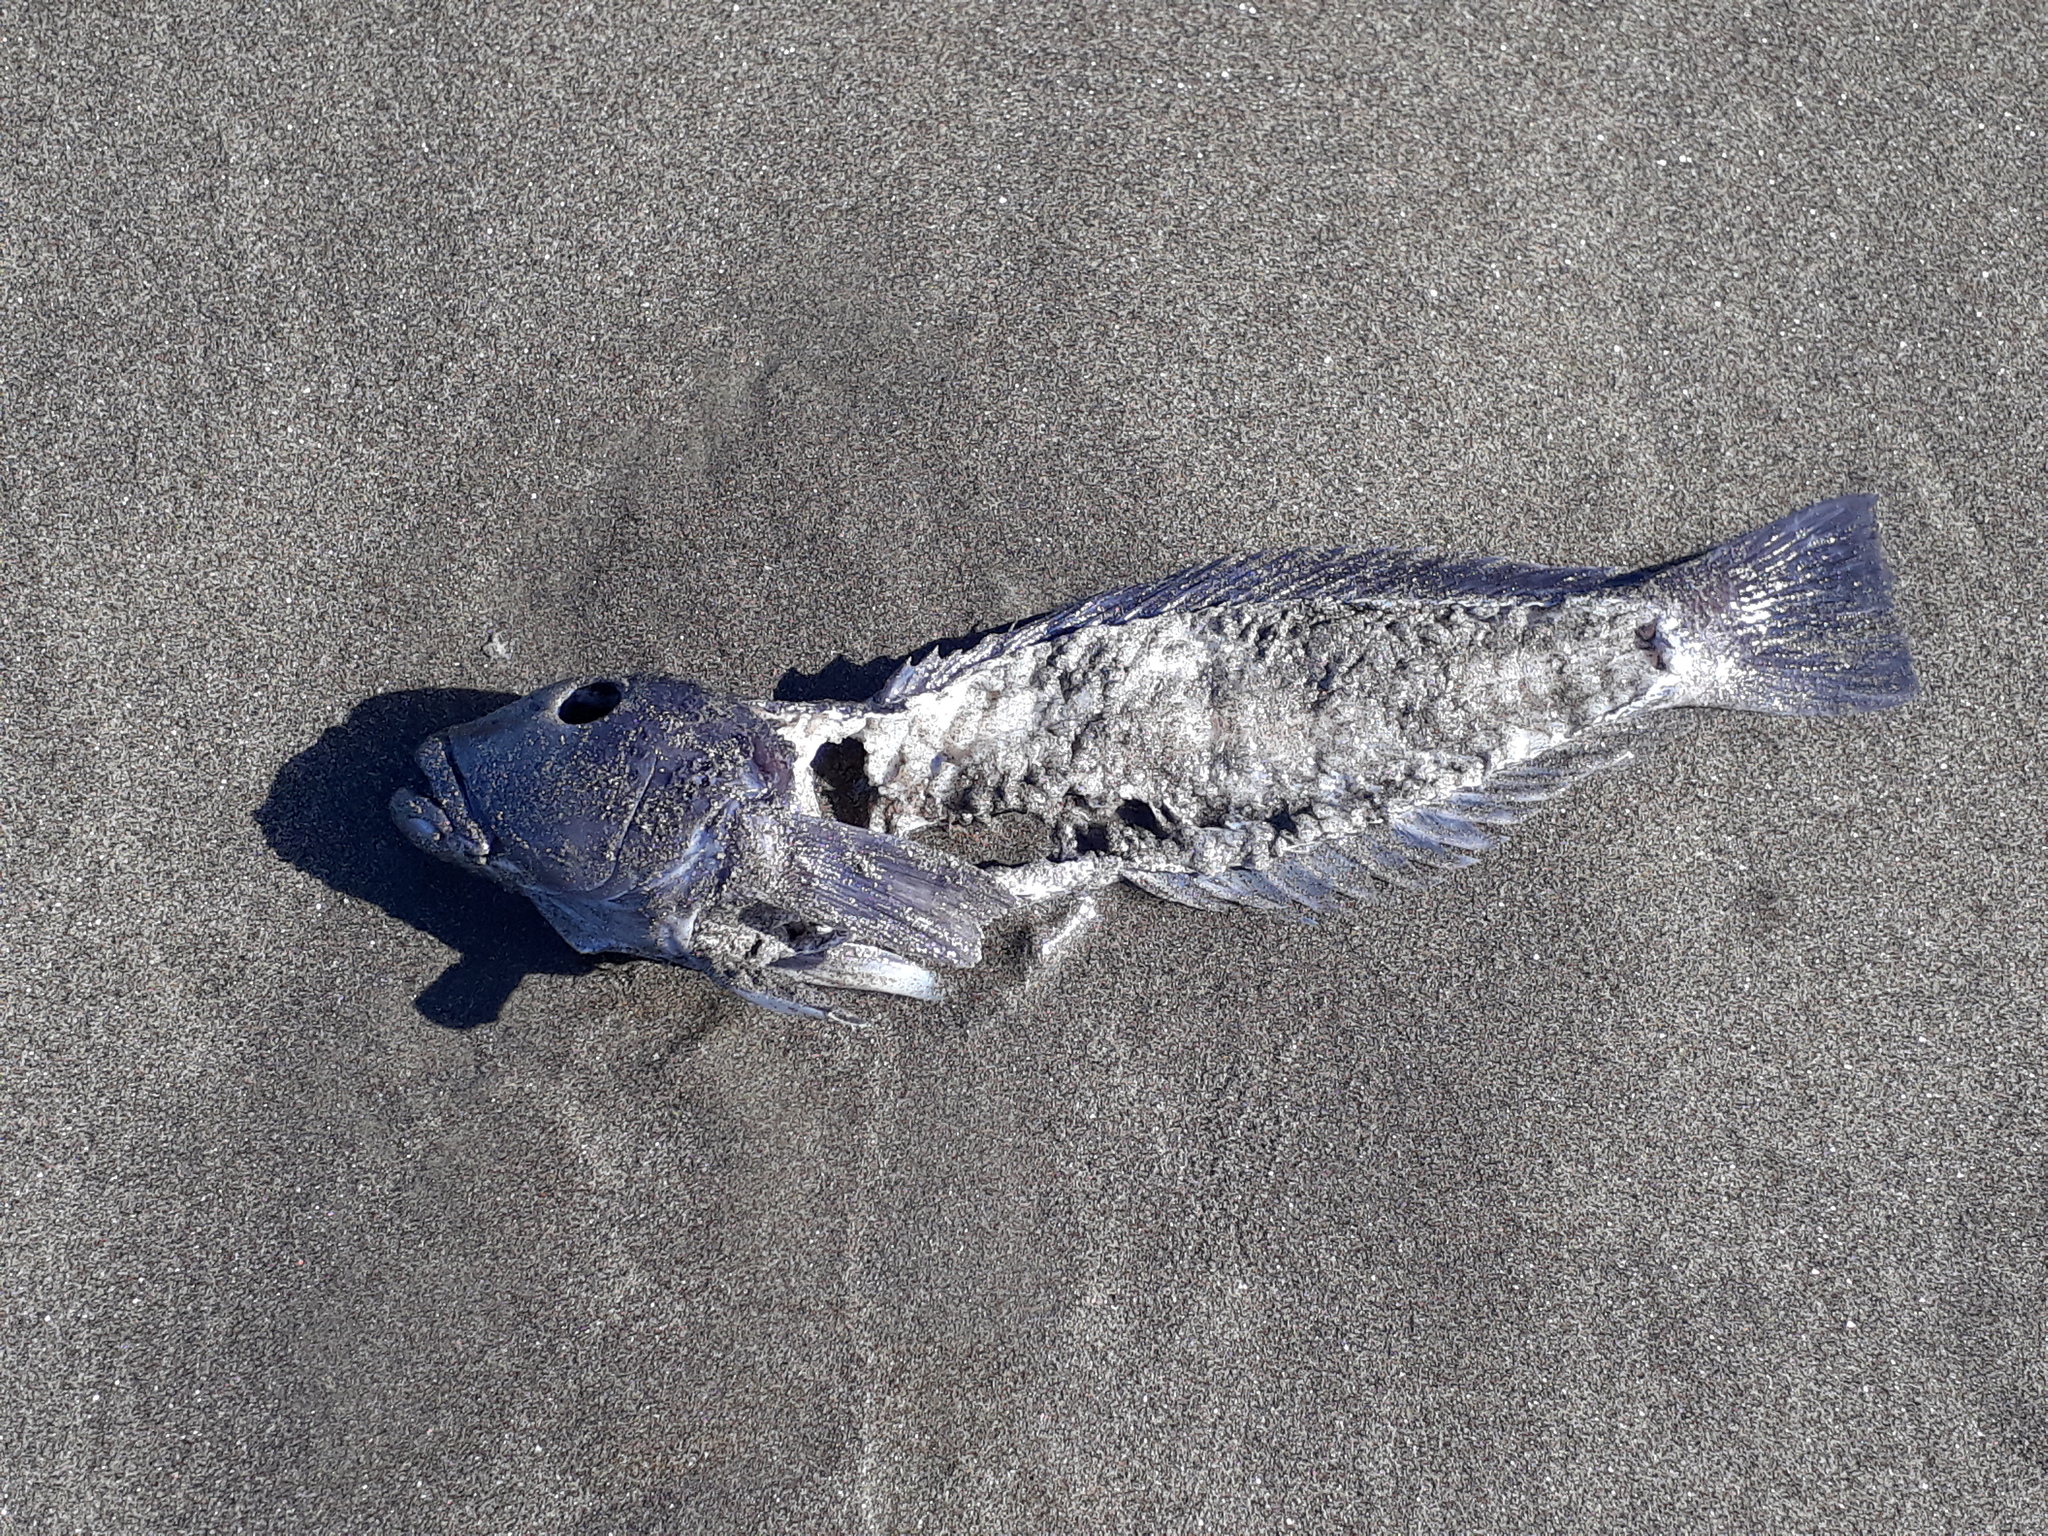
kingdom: Animalia
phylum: Chordata
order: Perciformes
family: Pinguipedidae
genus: Parapercis
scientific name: Parapercis colias
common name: Blue cod
